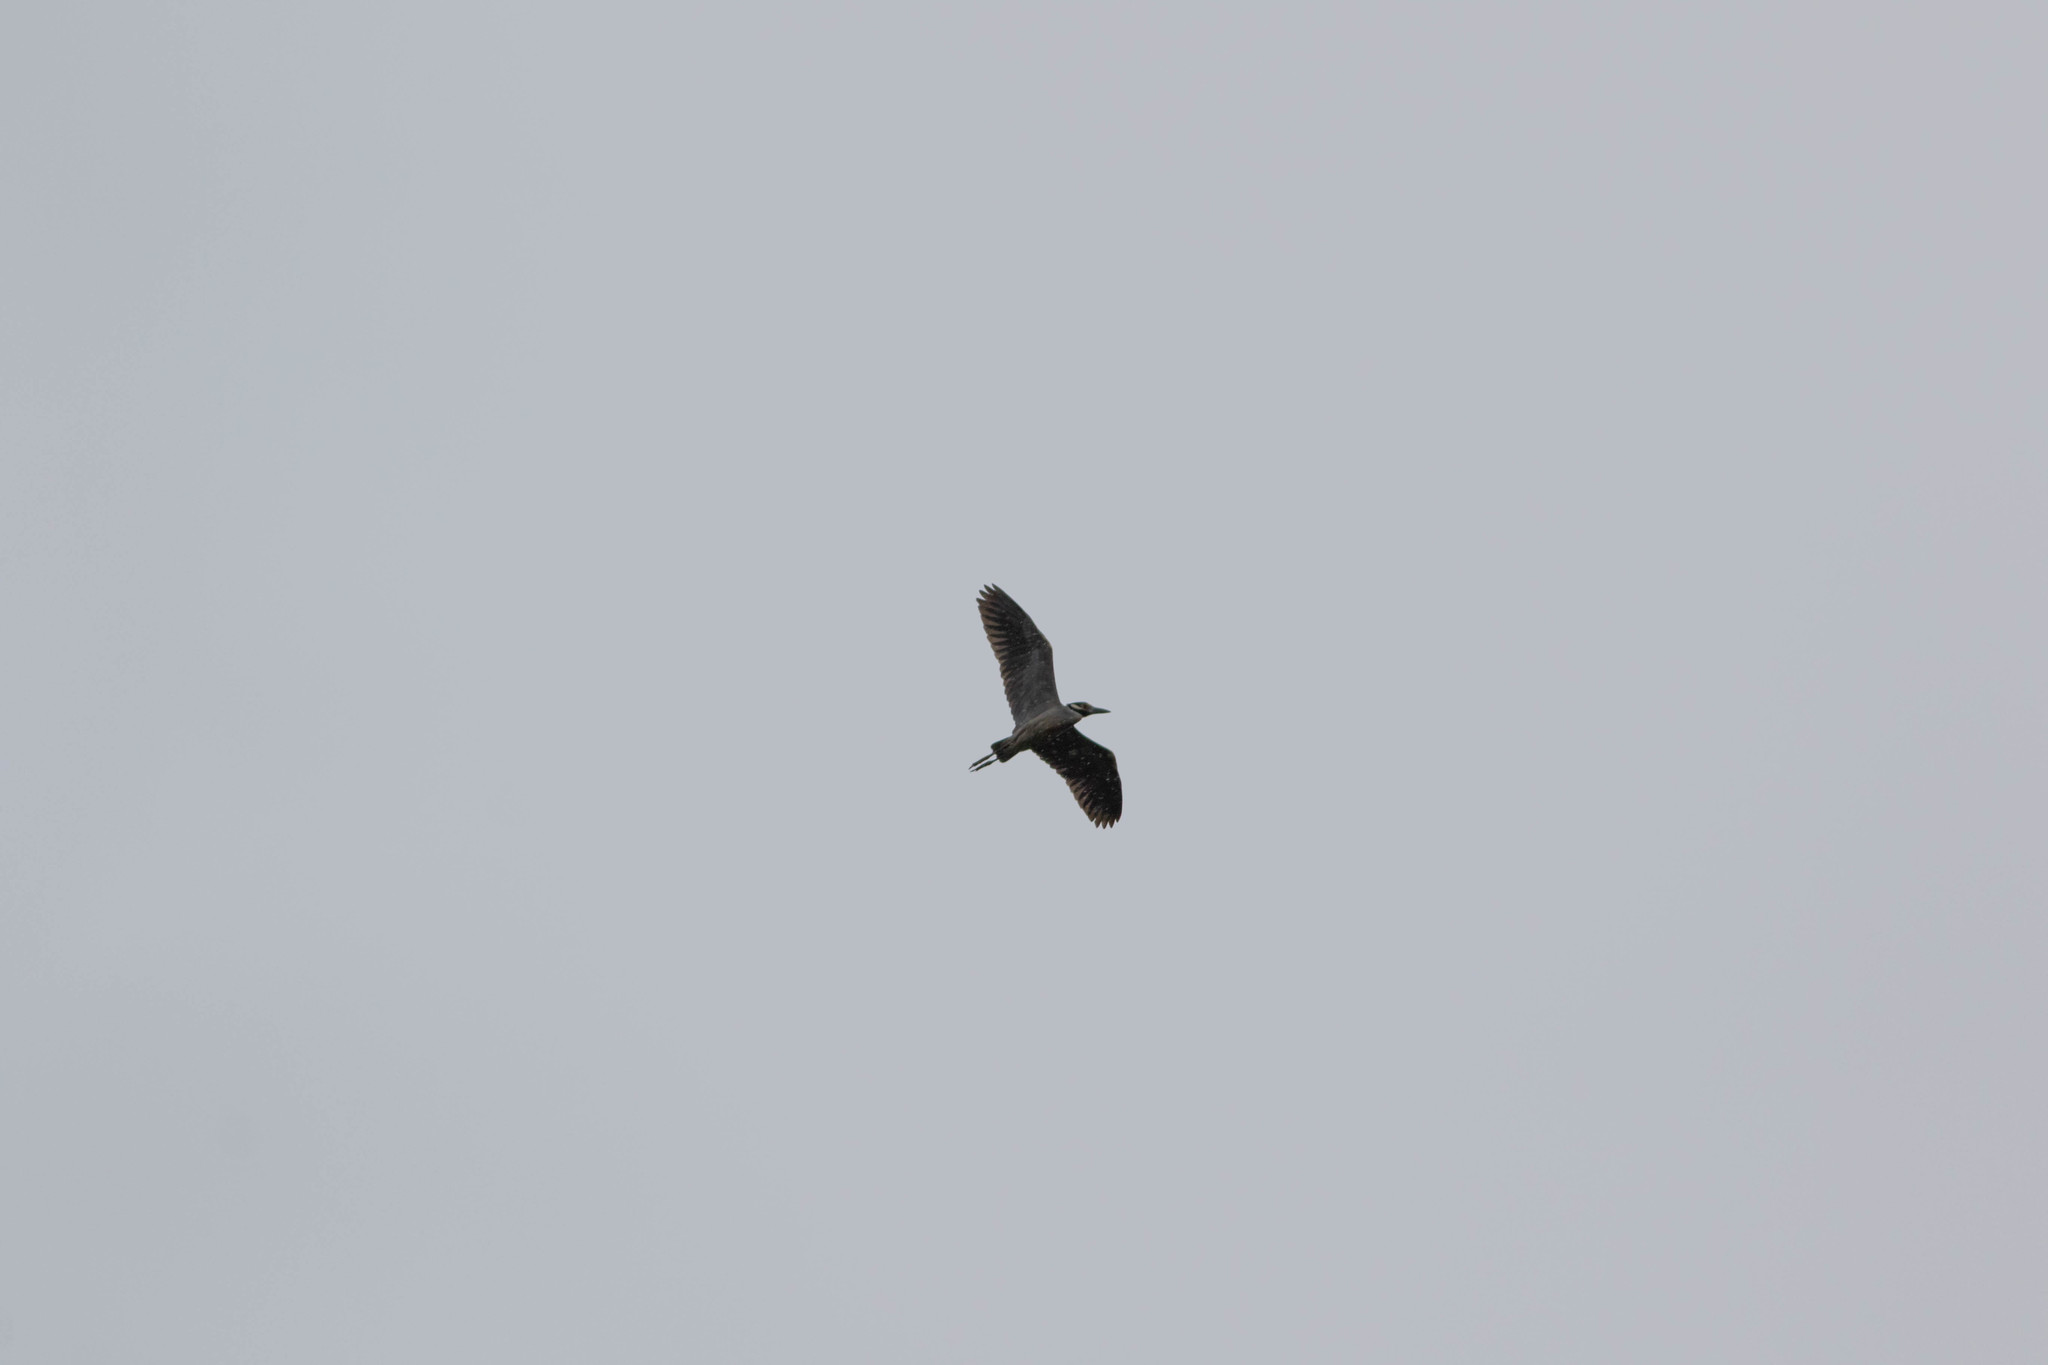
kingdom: Animalia
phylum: Chordata
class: Aves
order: Pelecaniformes
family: Ardeidae
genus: Nyctanassa
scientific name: Nyctanassa violacea
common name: Yellow-crowned night heron
